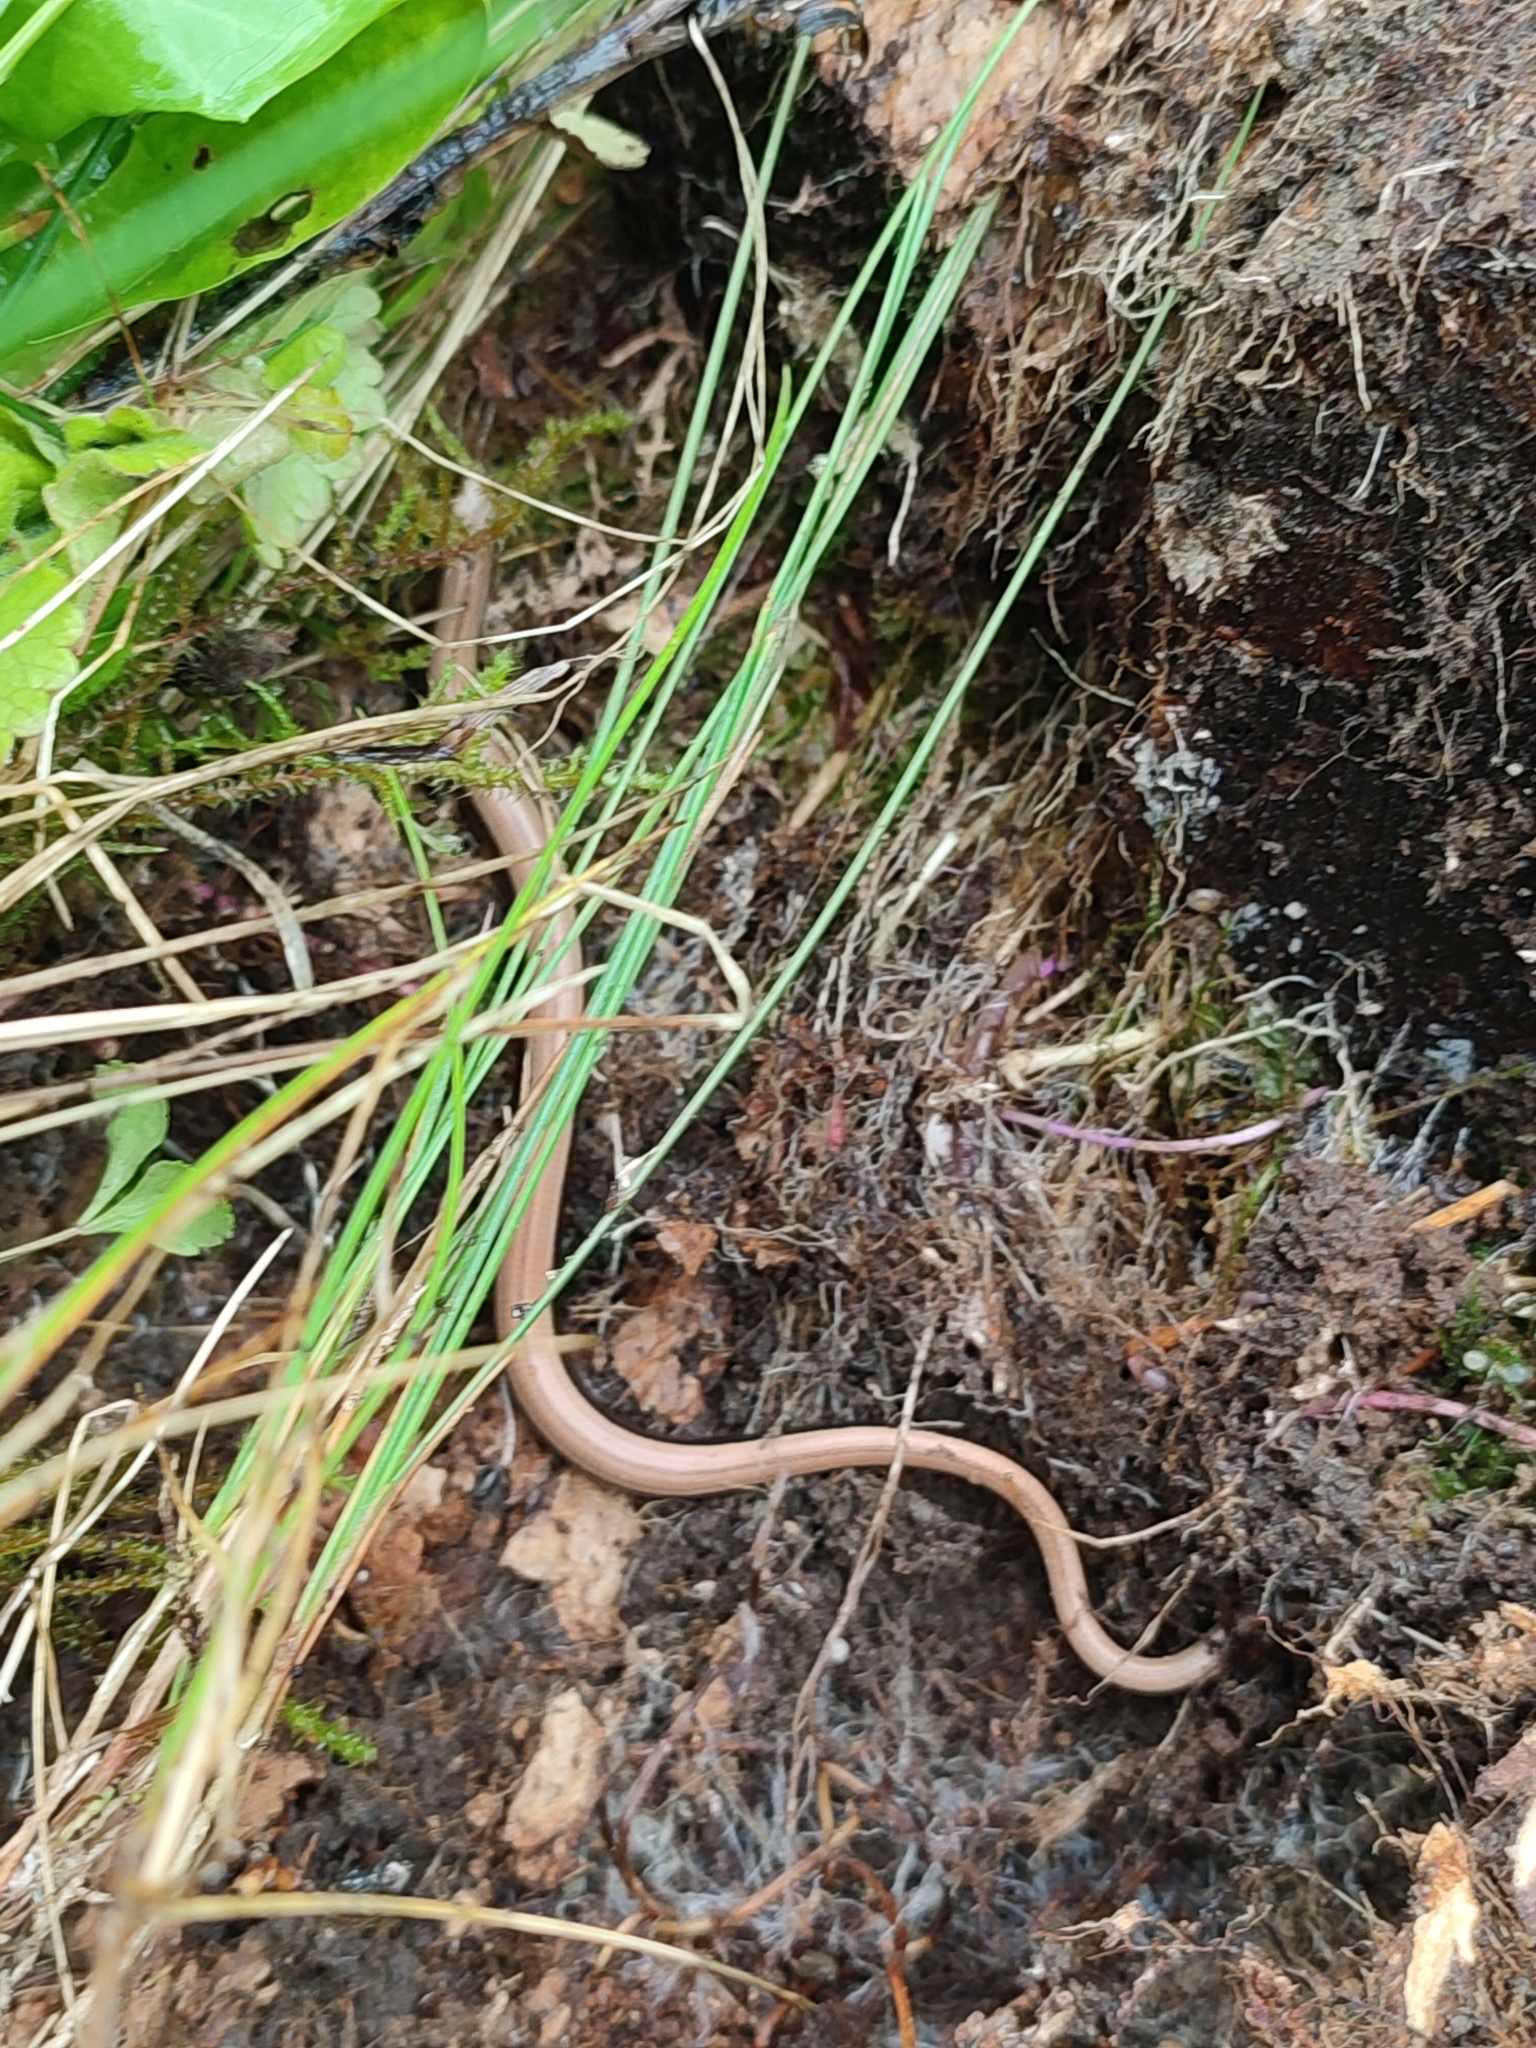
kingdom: Animalia
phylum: Chordata
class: Squamata
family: Anguidae
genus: Anguis
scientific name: Anguis colchica
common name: Slow worm
